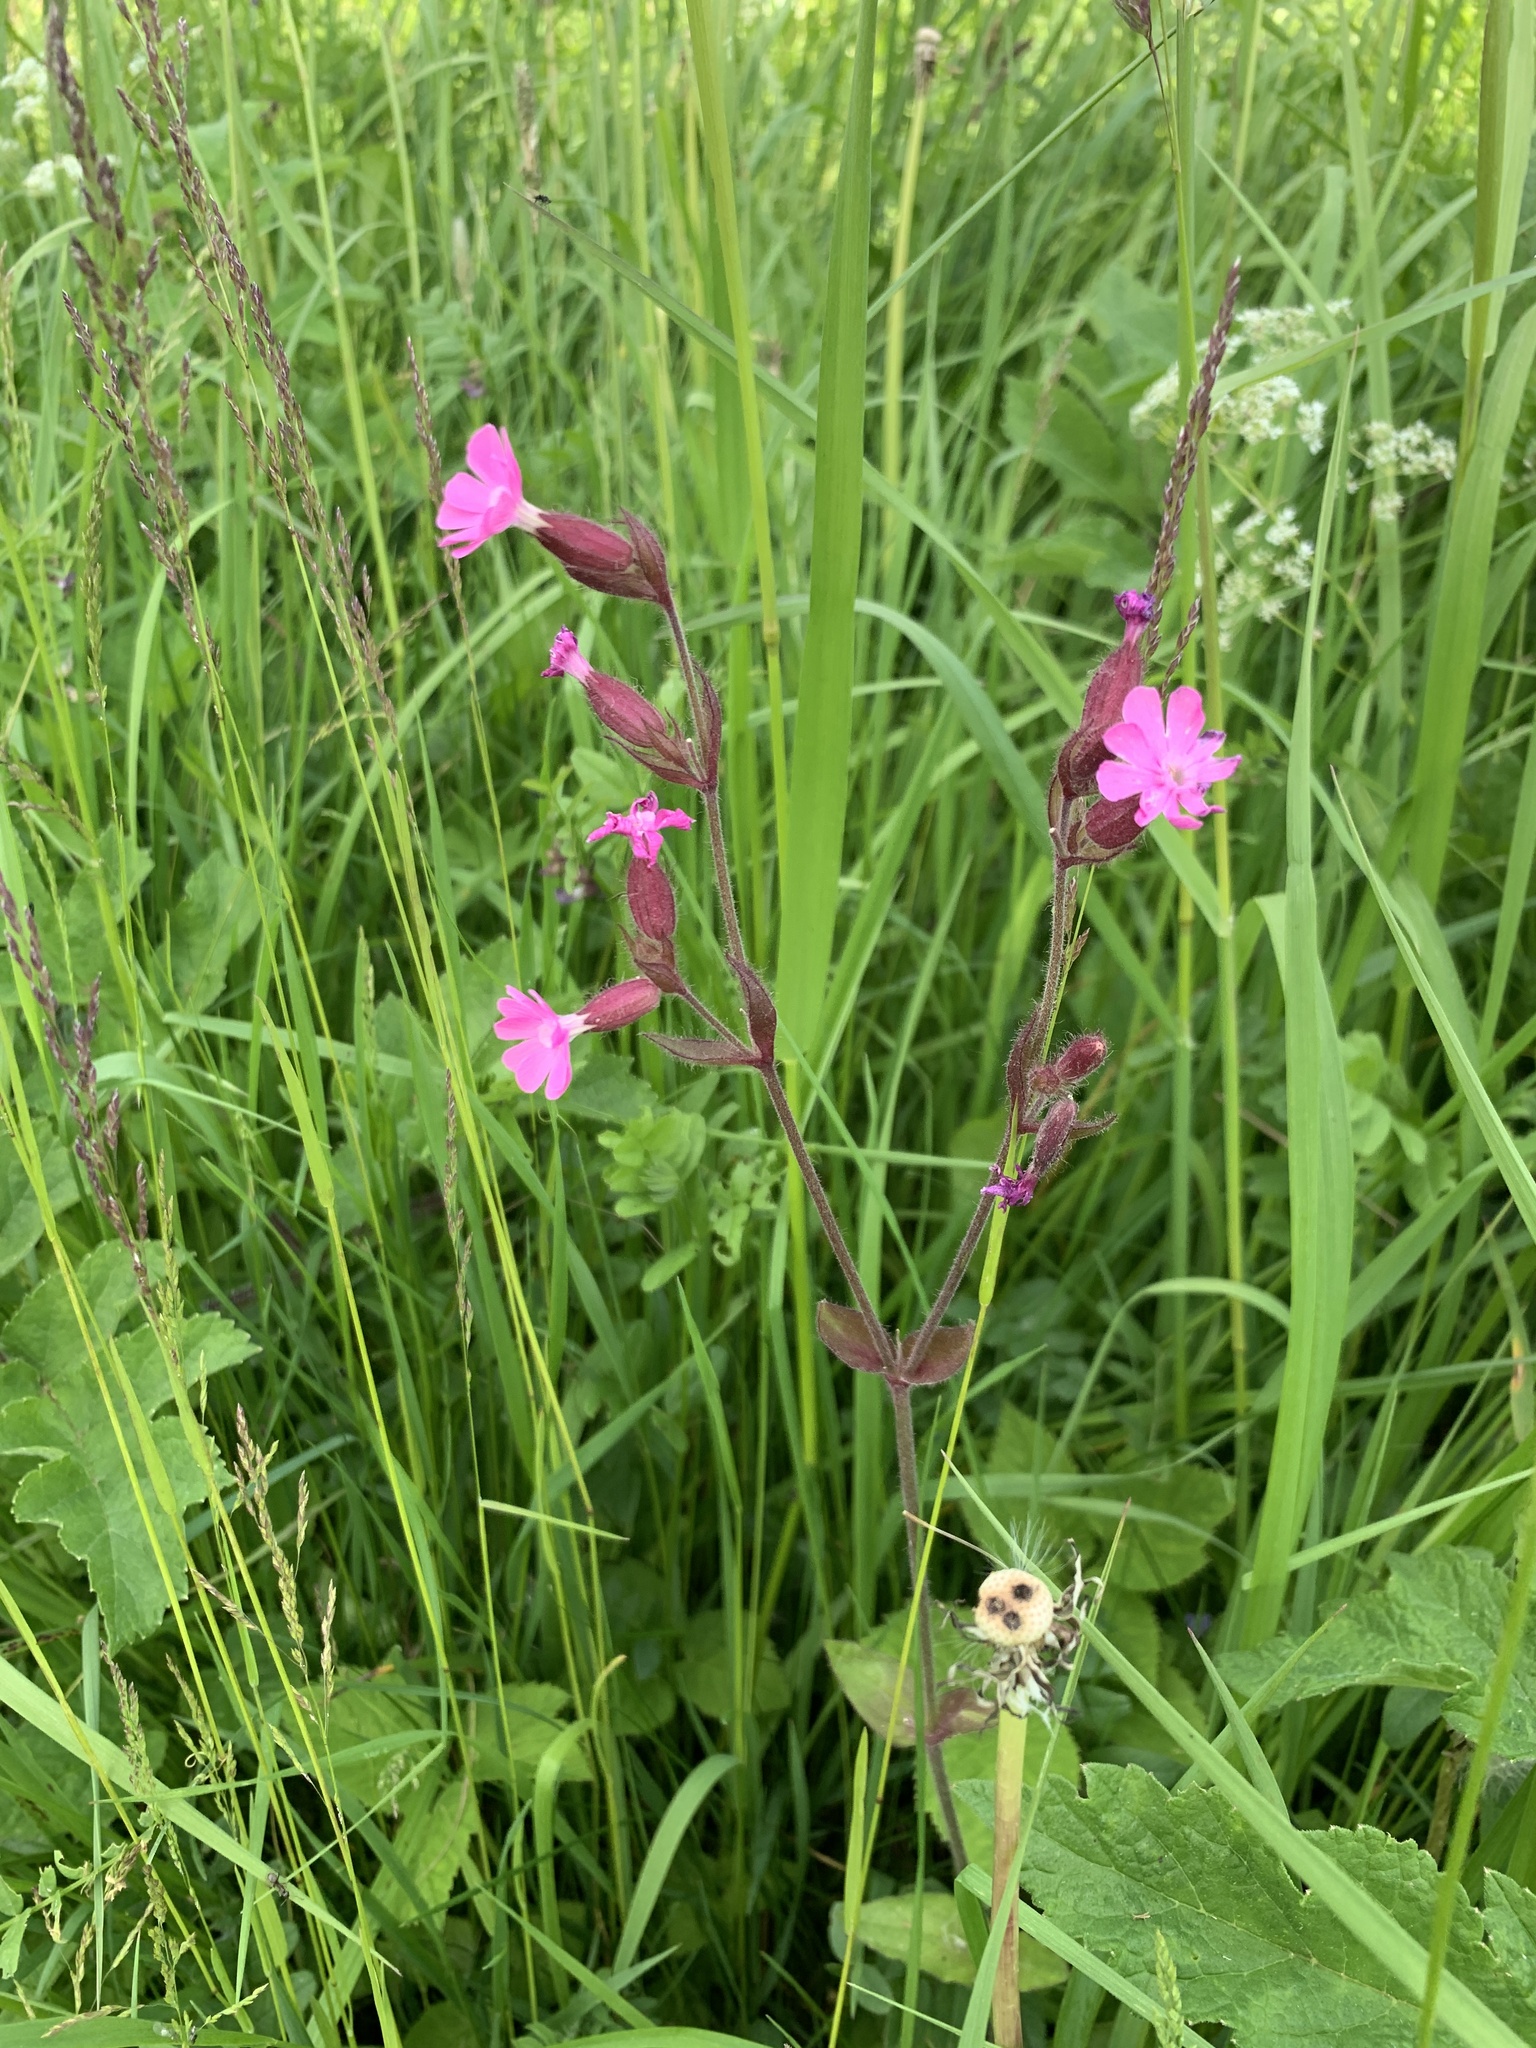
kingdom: Plantae
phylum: Tracheophyta
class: Magnoliopsida
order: Caryophyllales
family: Caryophyllaceae
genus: Silene
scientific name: Silene dioica
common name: Red campion
